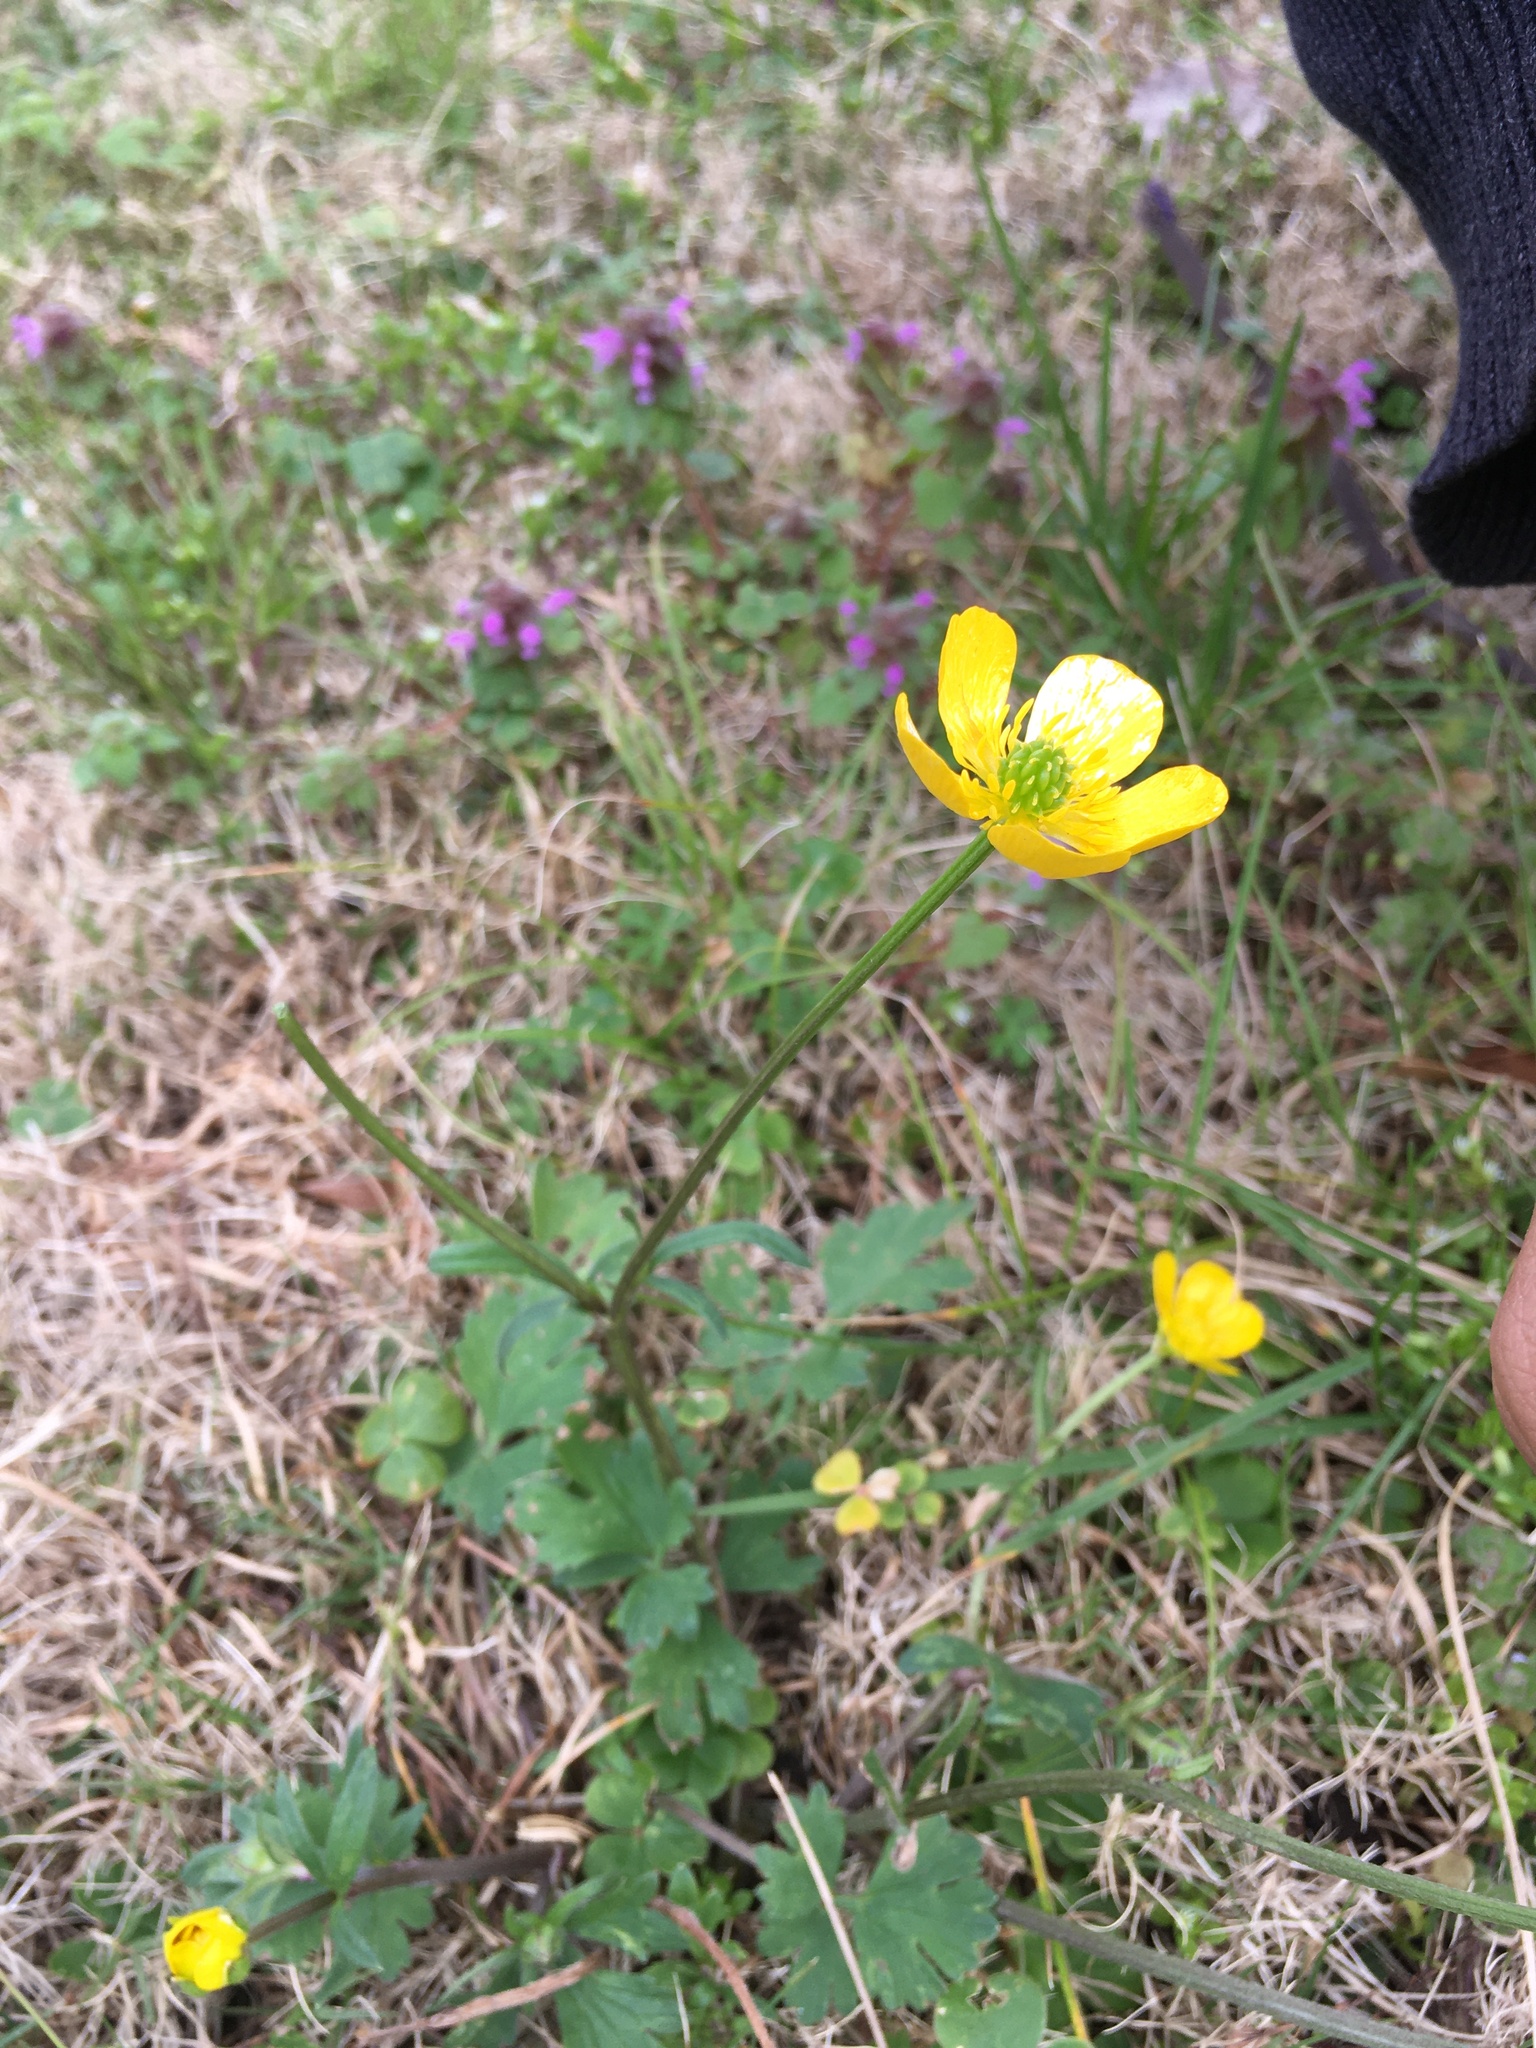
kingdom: Plantae
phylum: Tracheophyta
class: Magnoliopsida
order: Ranunculales
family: Ranunculaceae
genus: Ranunculus
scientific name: Ranunculus bulbosus
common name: Bulbous buttercup
